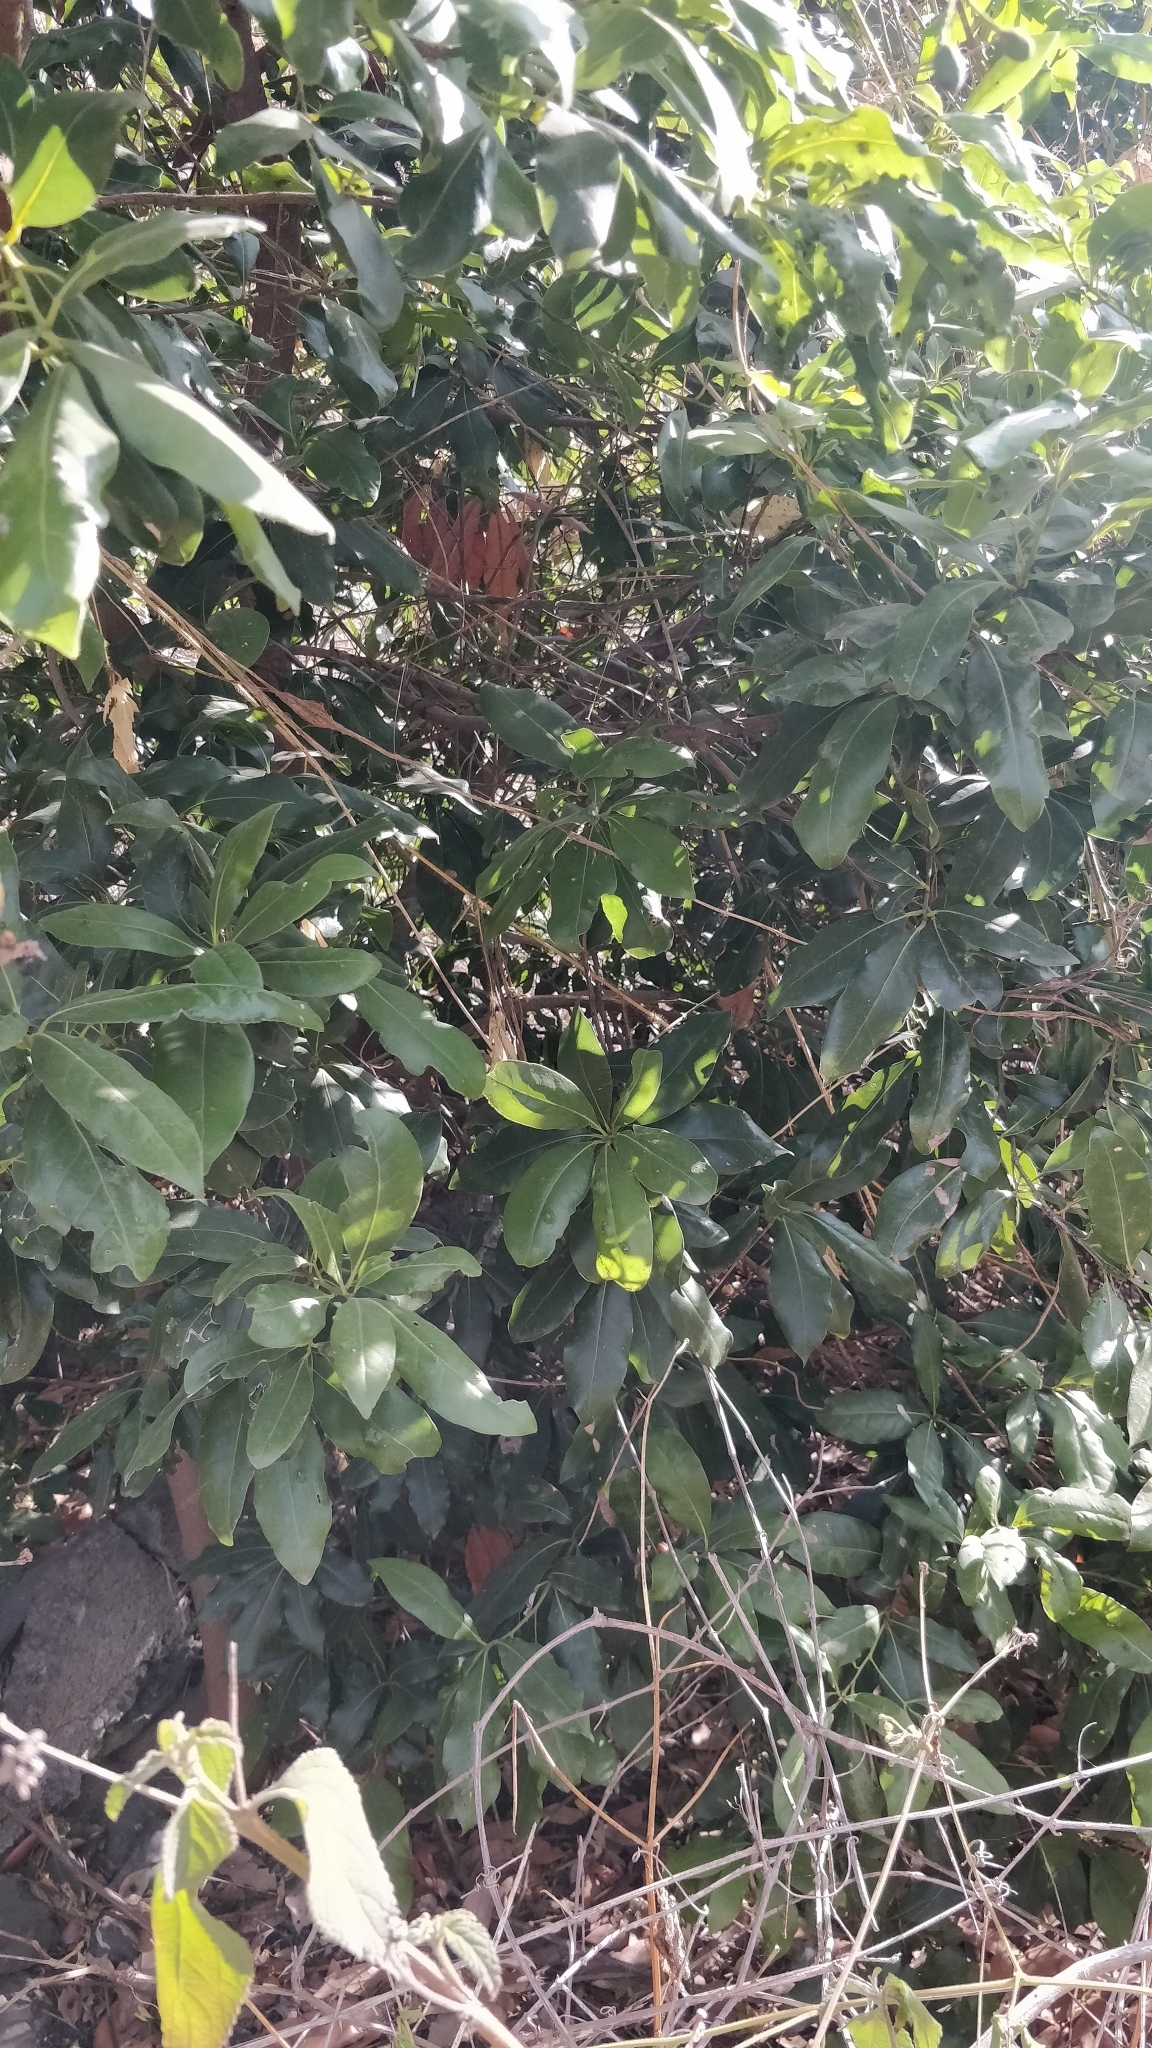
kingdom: Plantae
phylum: Tracheophyta
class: Magnoliopsida
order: Laurales
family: Lauraceae
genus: Apollonias
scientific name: Apollonias barbujana
